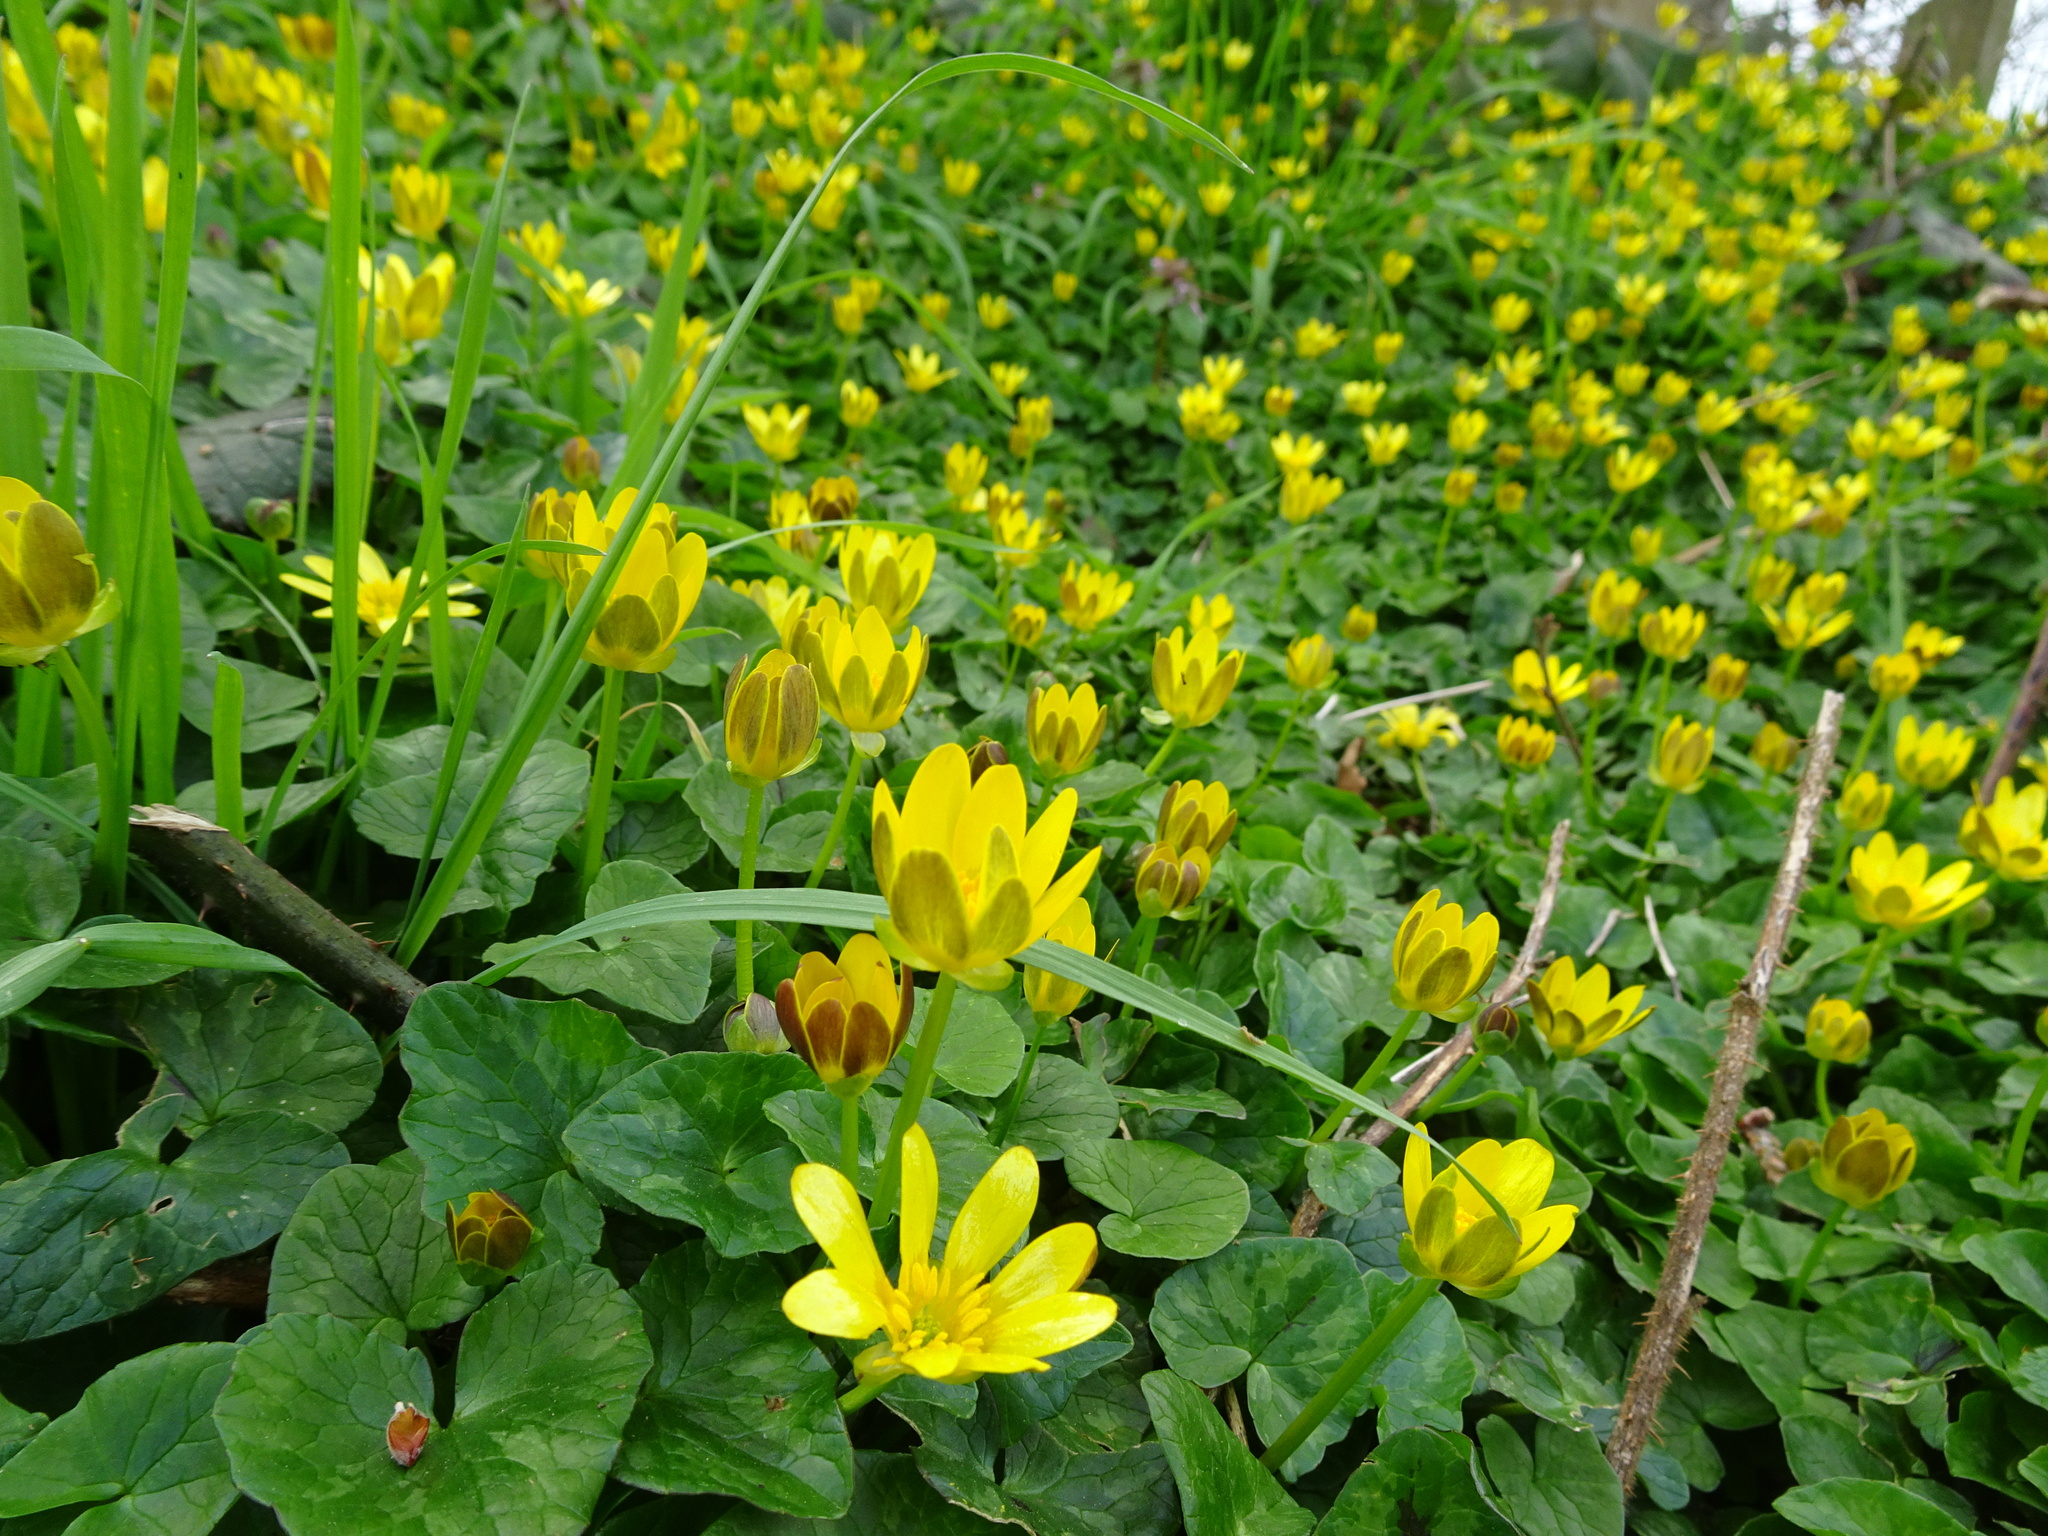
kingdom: Plantae
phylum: Tracheophyta
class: Magnoliopsida
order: Ranunculales
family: Ranunculaceae
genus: Ficaria
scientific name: Ficaria verna
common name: Lesser celandine
